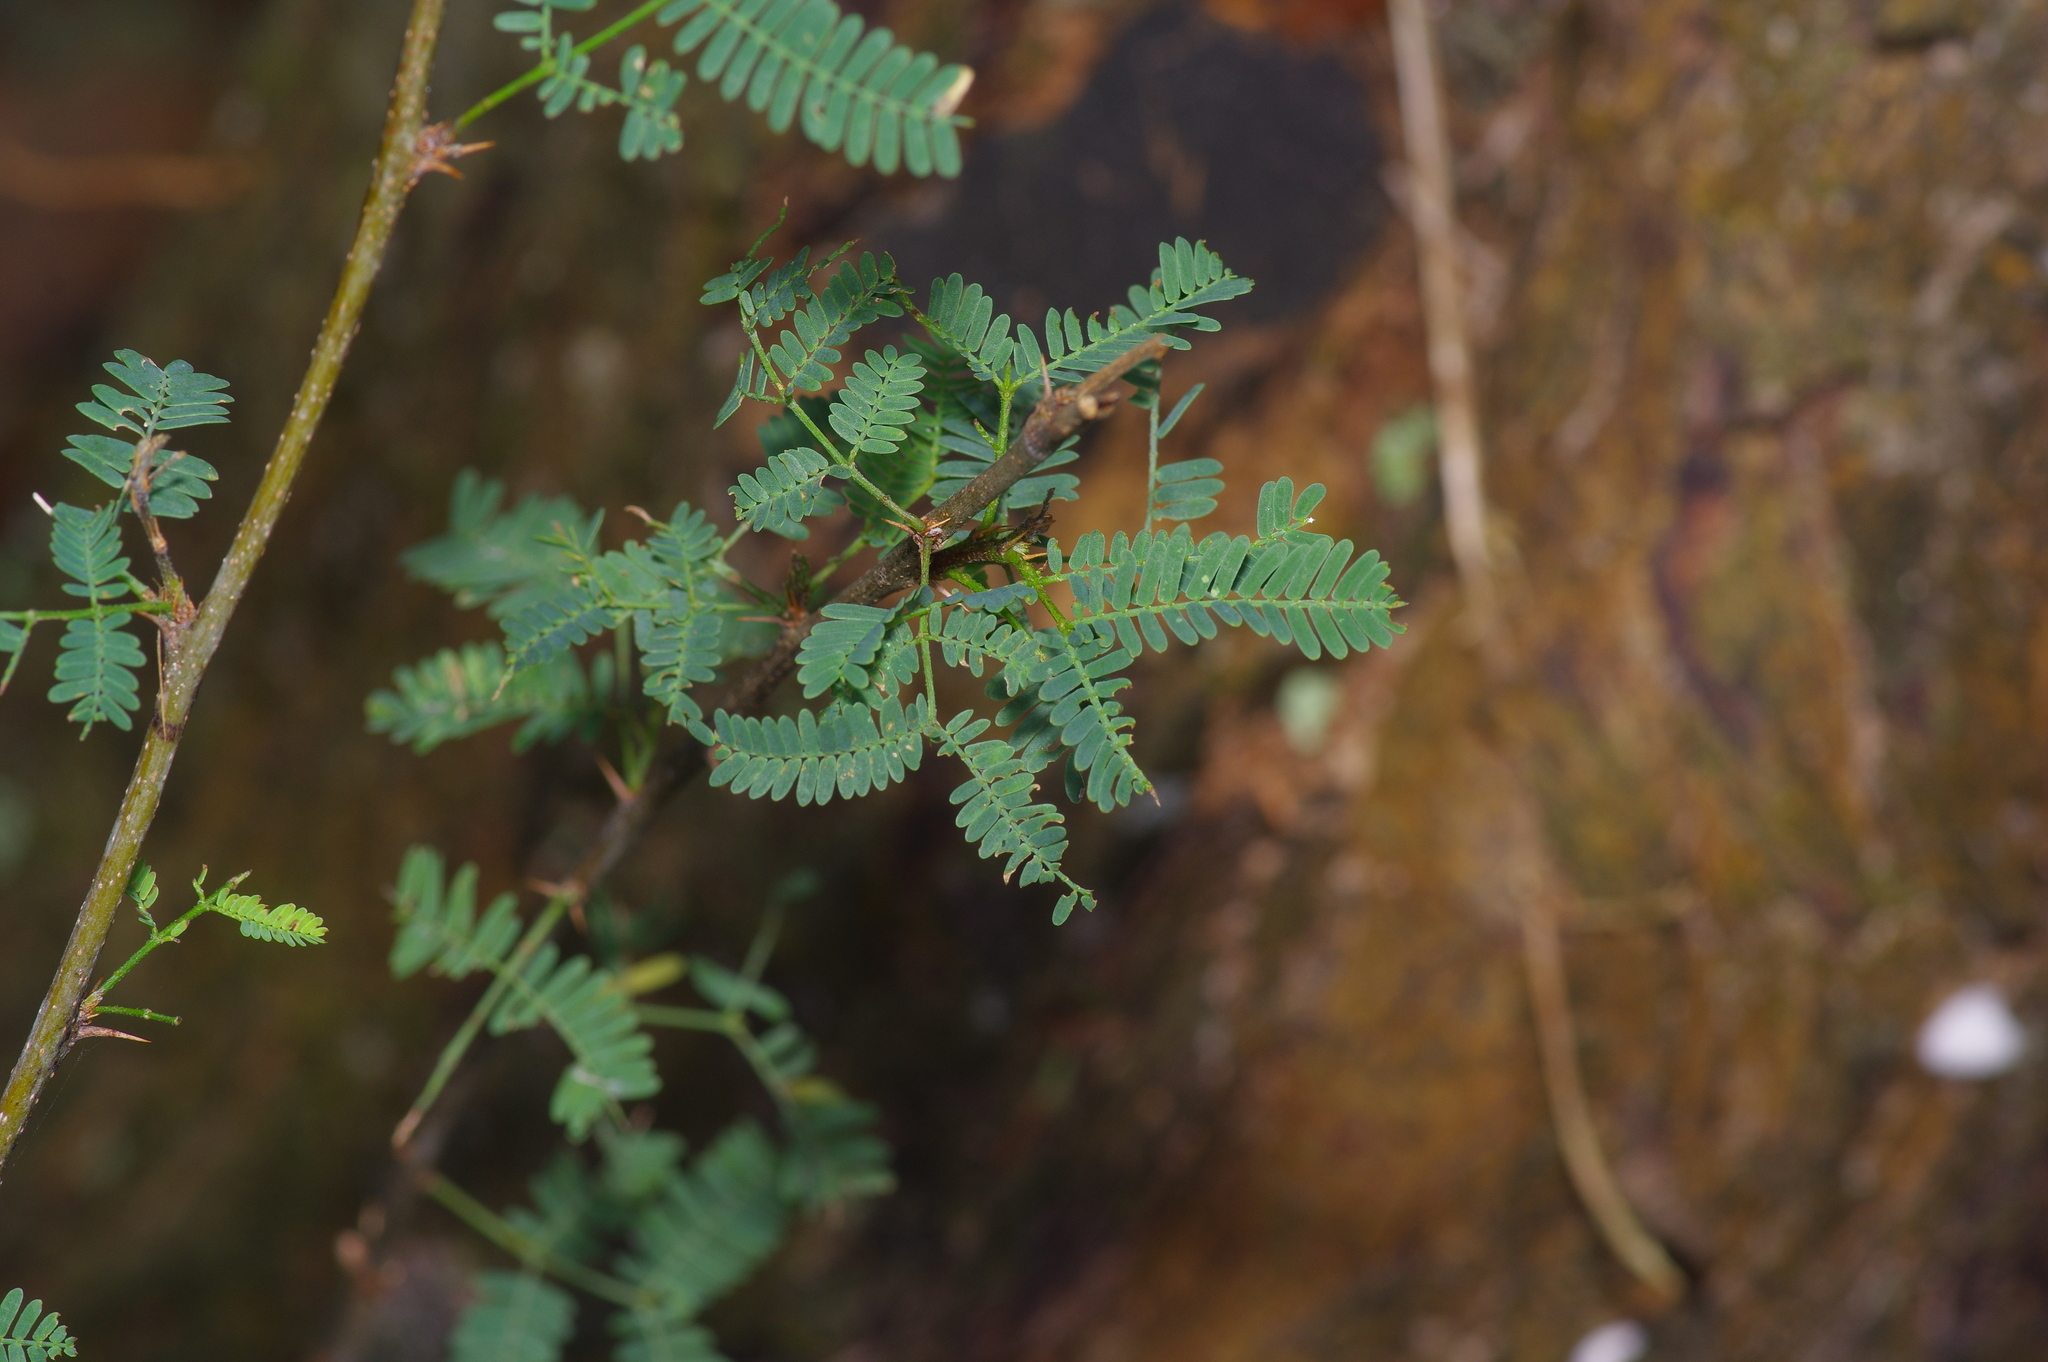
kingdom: Plantae
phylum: Tracheophyta
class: Magnoliopsida
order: Fabales
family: Fabaceae
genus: Vachellia
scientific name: Vachellia farnesiana
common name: Sweet acacia
